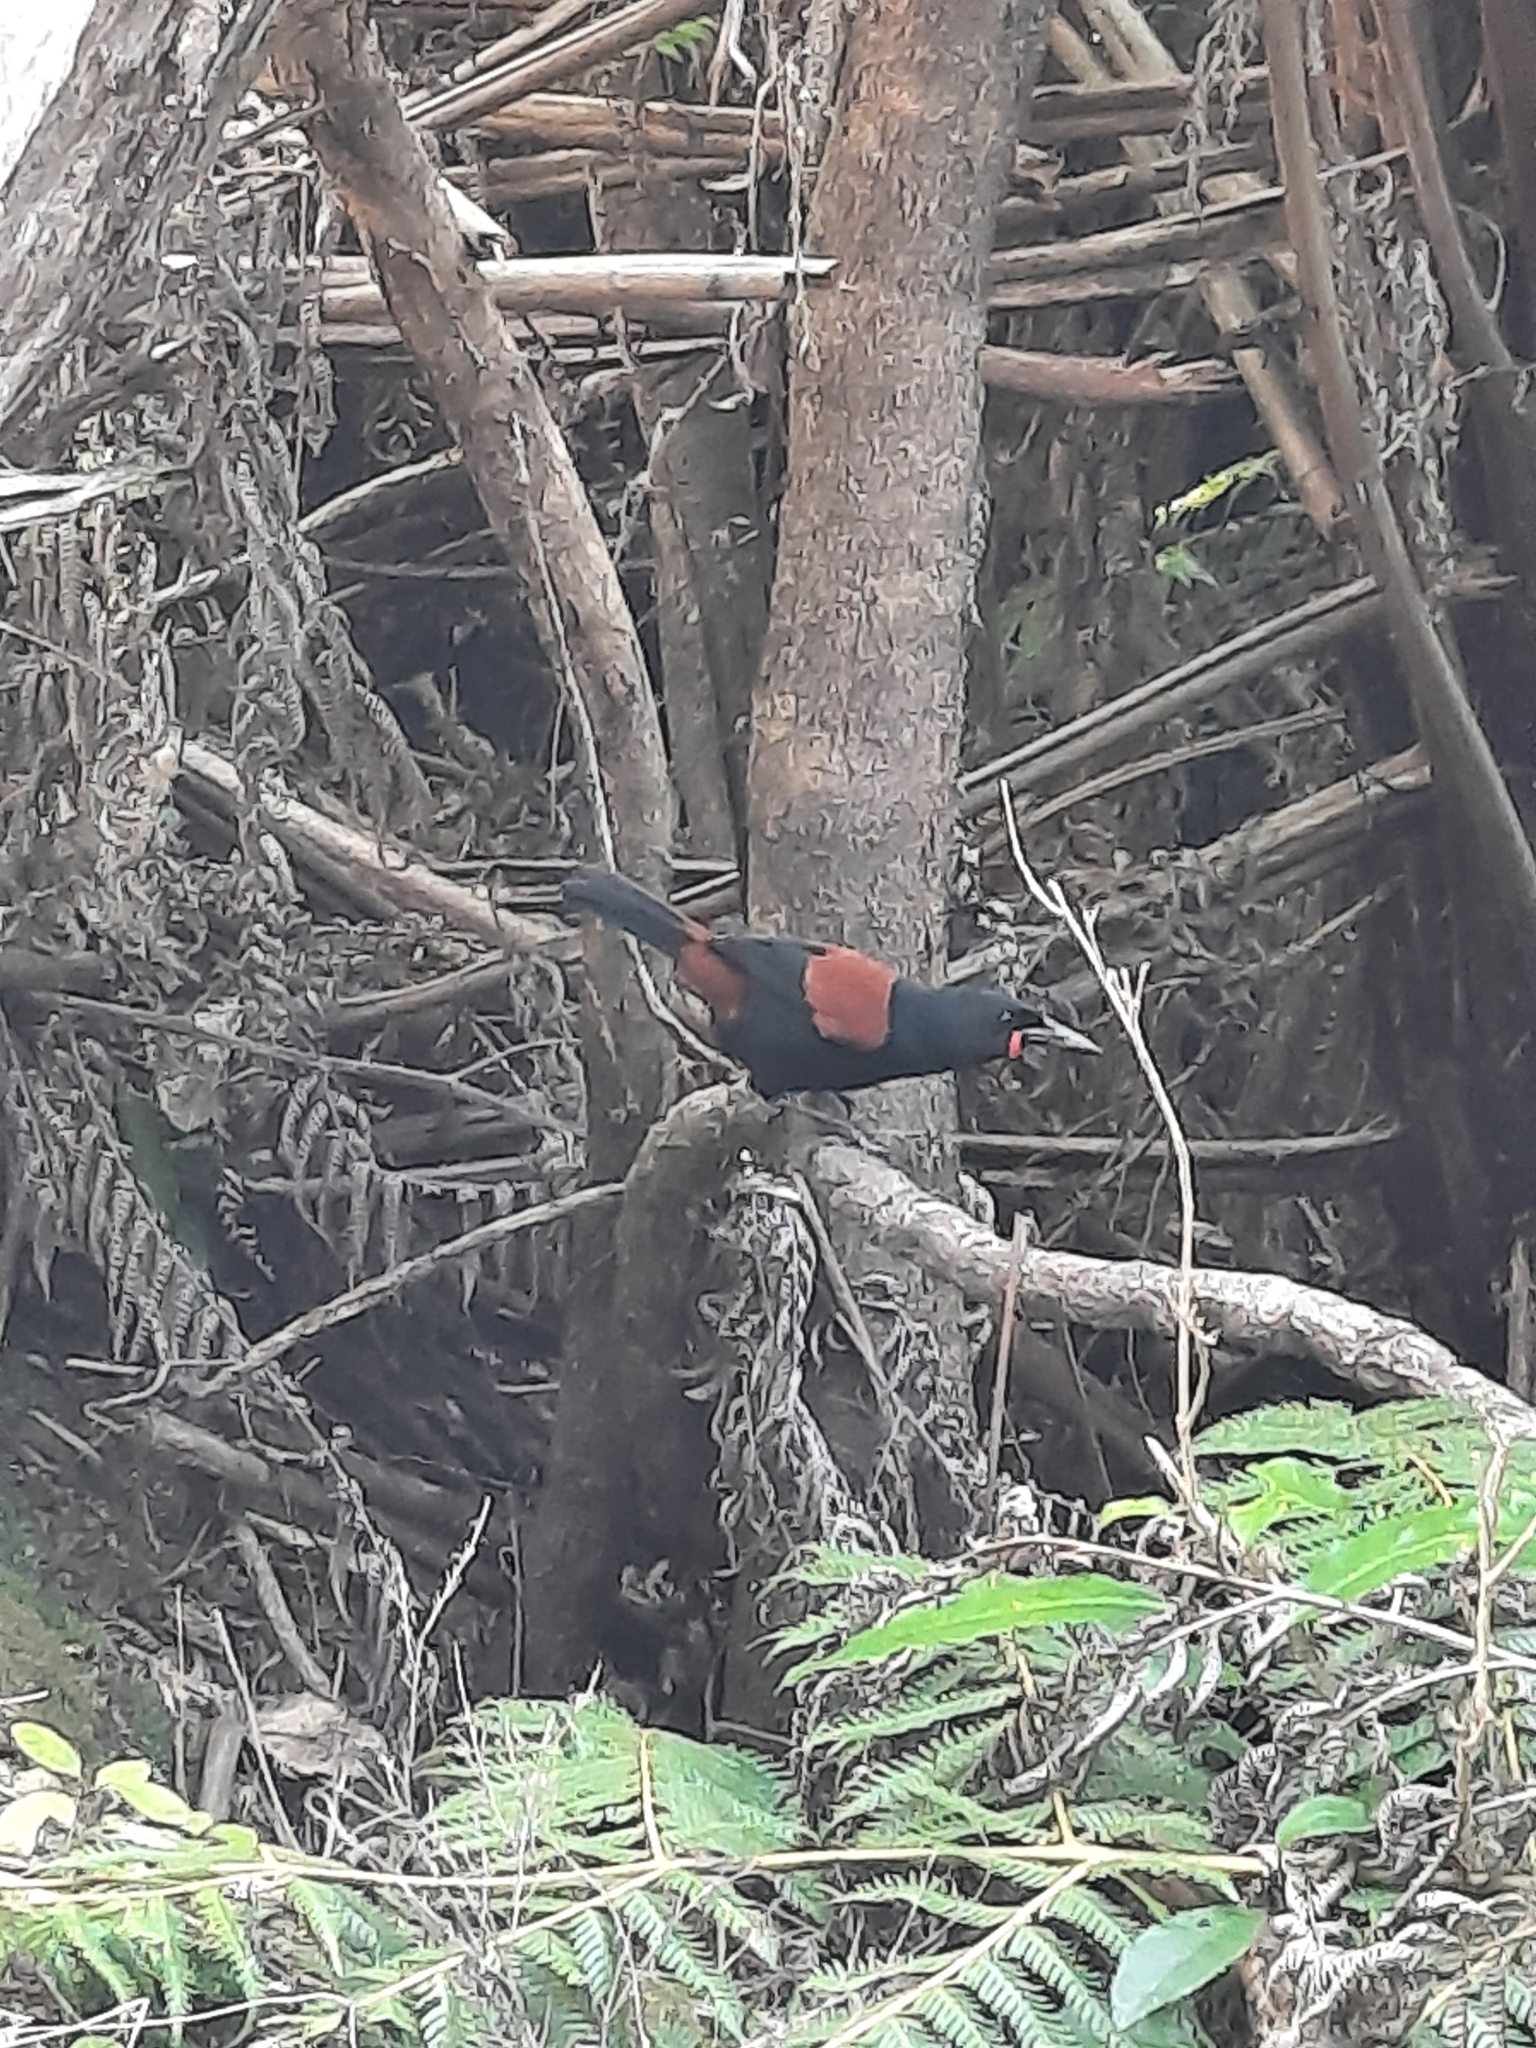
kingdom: Animalia
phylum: Chordata
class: Aves
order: Passeriformes
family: Callaeatidae
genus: Philesturnus
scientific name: Philesturnus carunculatus
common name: South island saddleback
